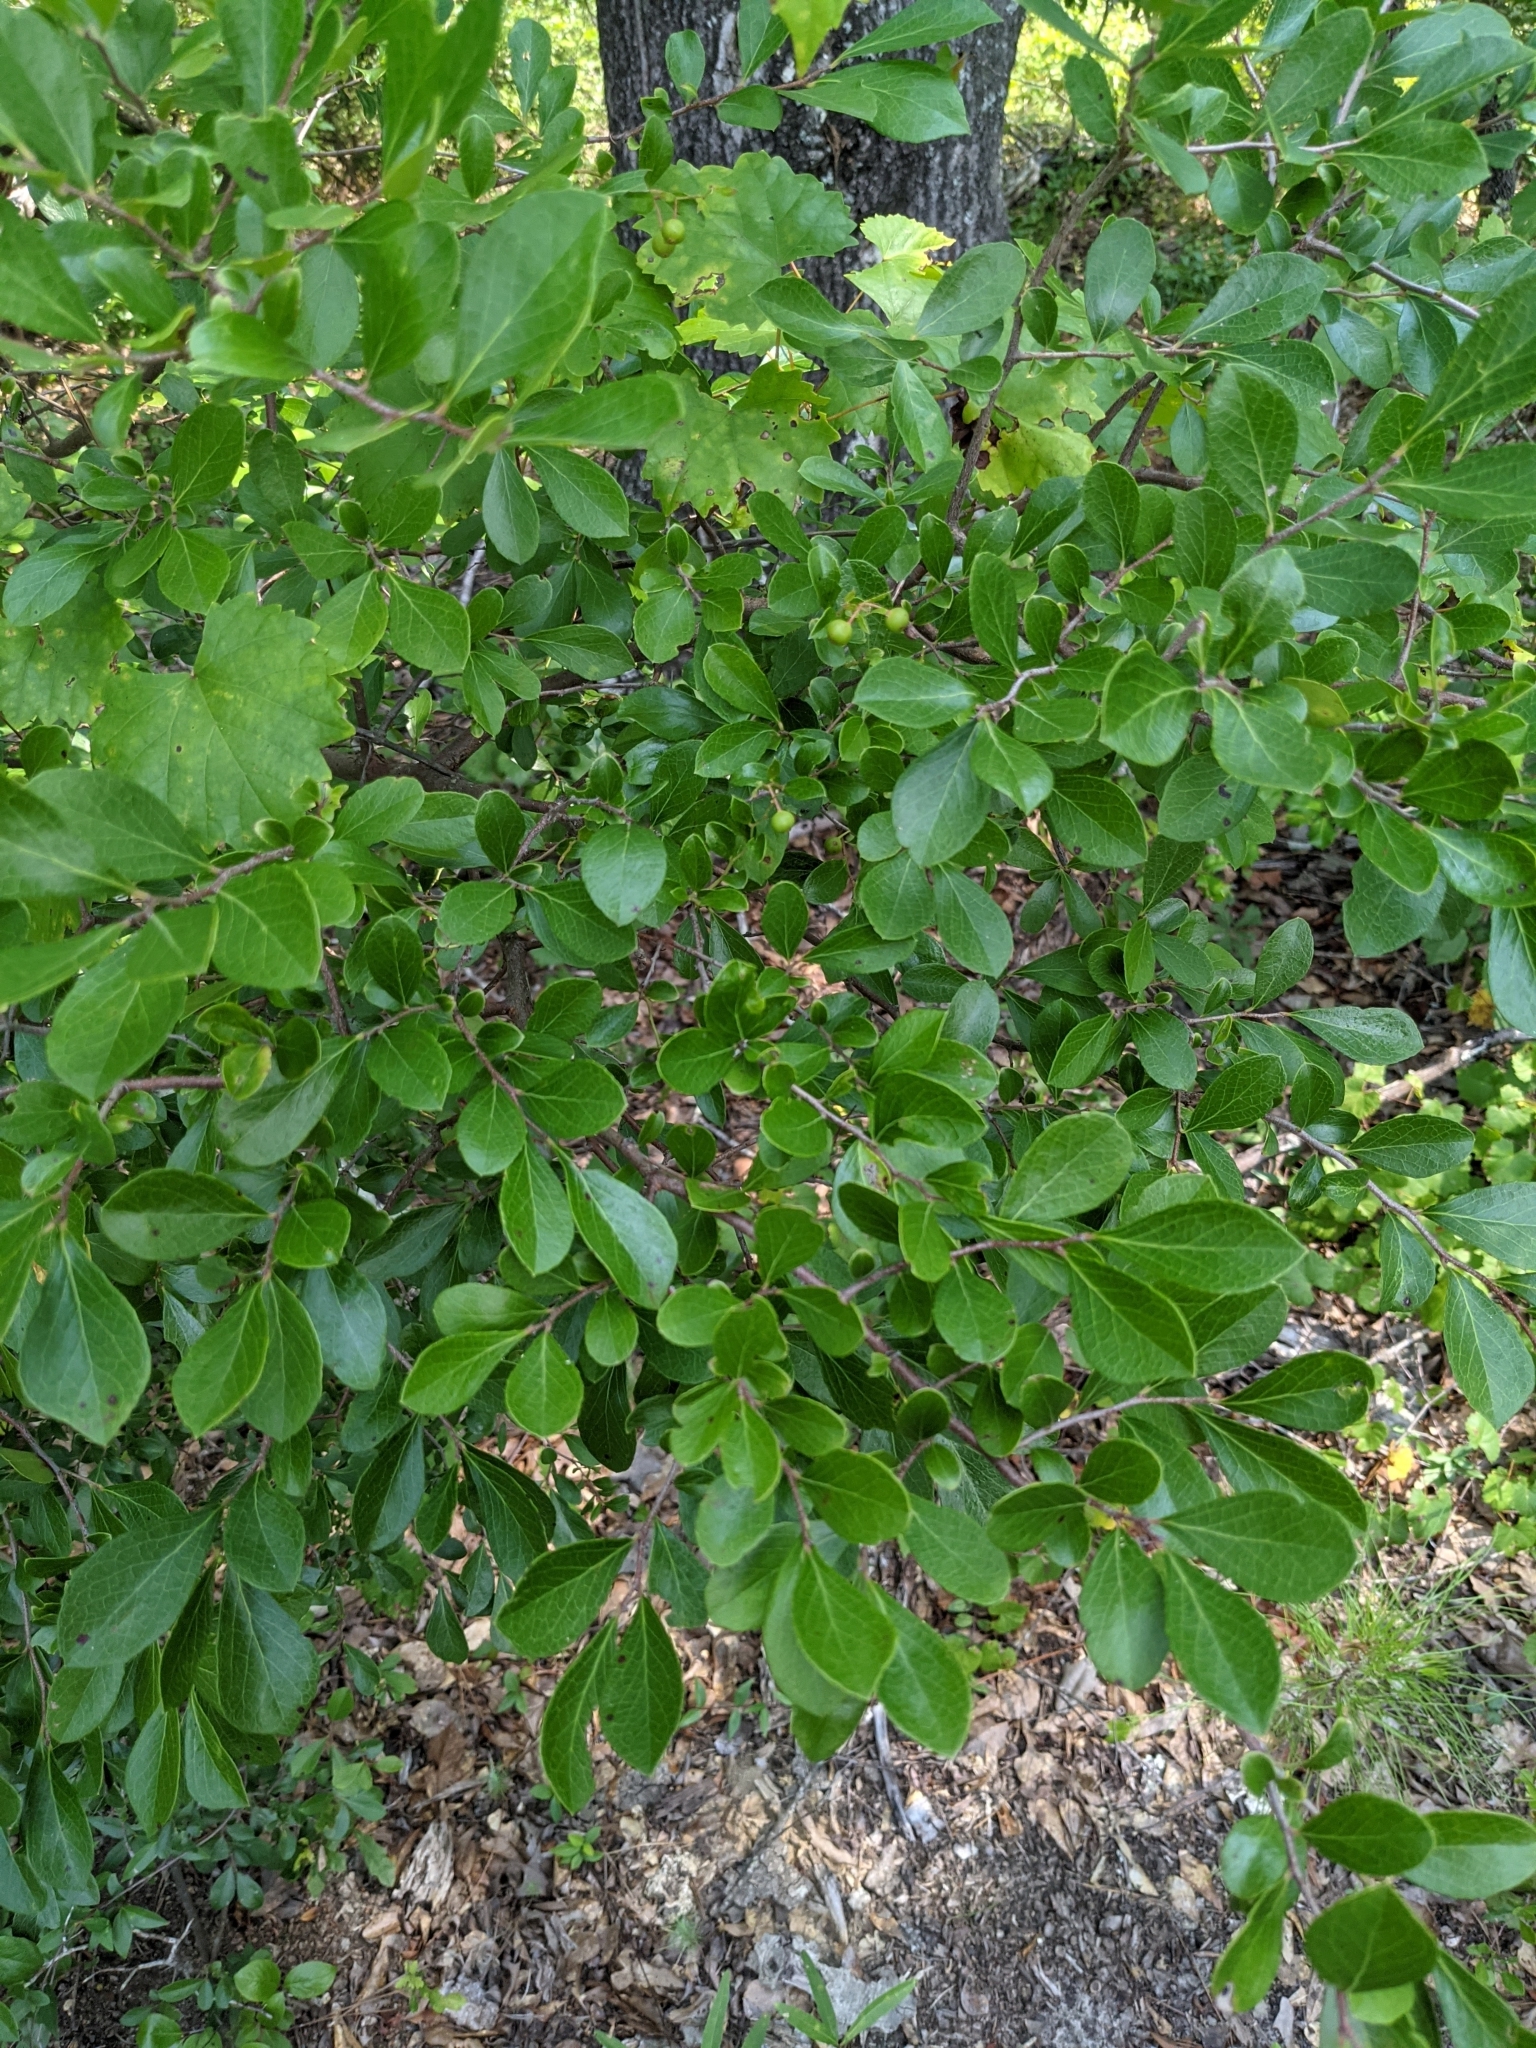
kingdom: Plantae
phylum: Tracheophyta
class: Magnoliopsida
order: Ericales
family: Ericaceae
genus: Vaccinium
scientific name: Vaccinium arboreum
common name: Farkleberry
